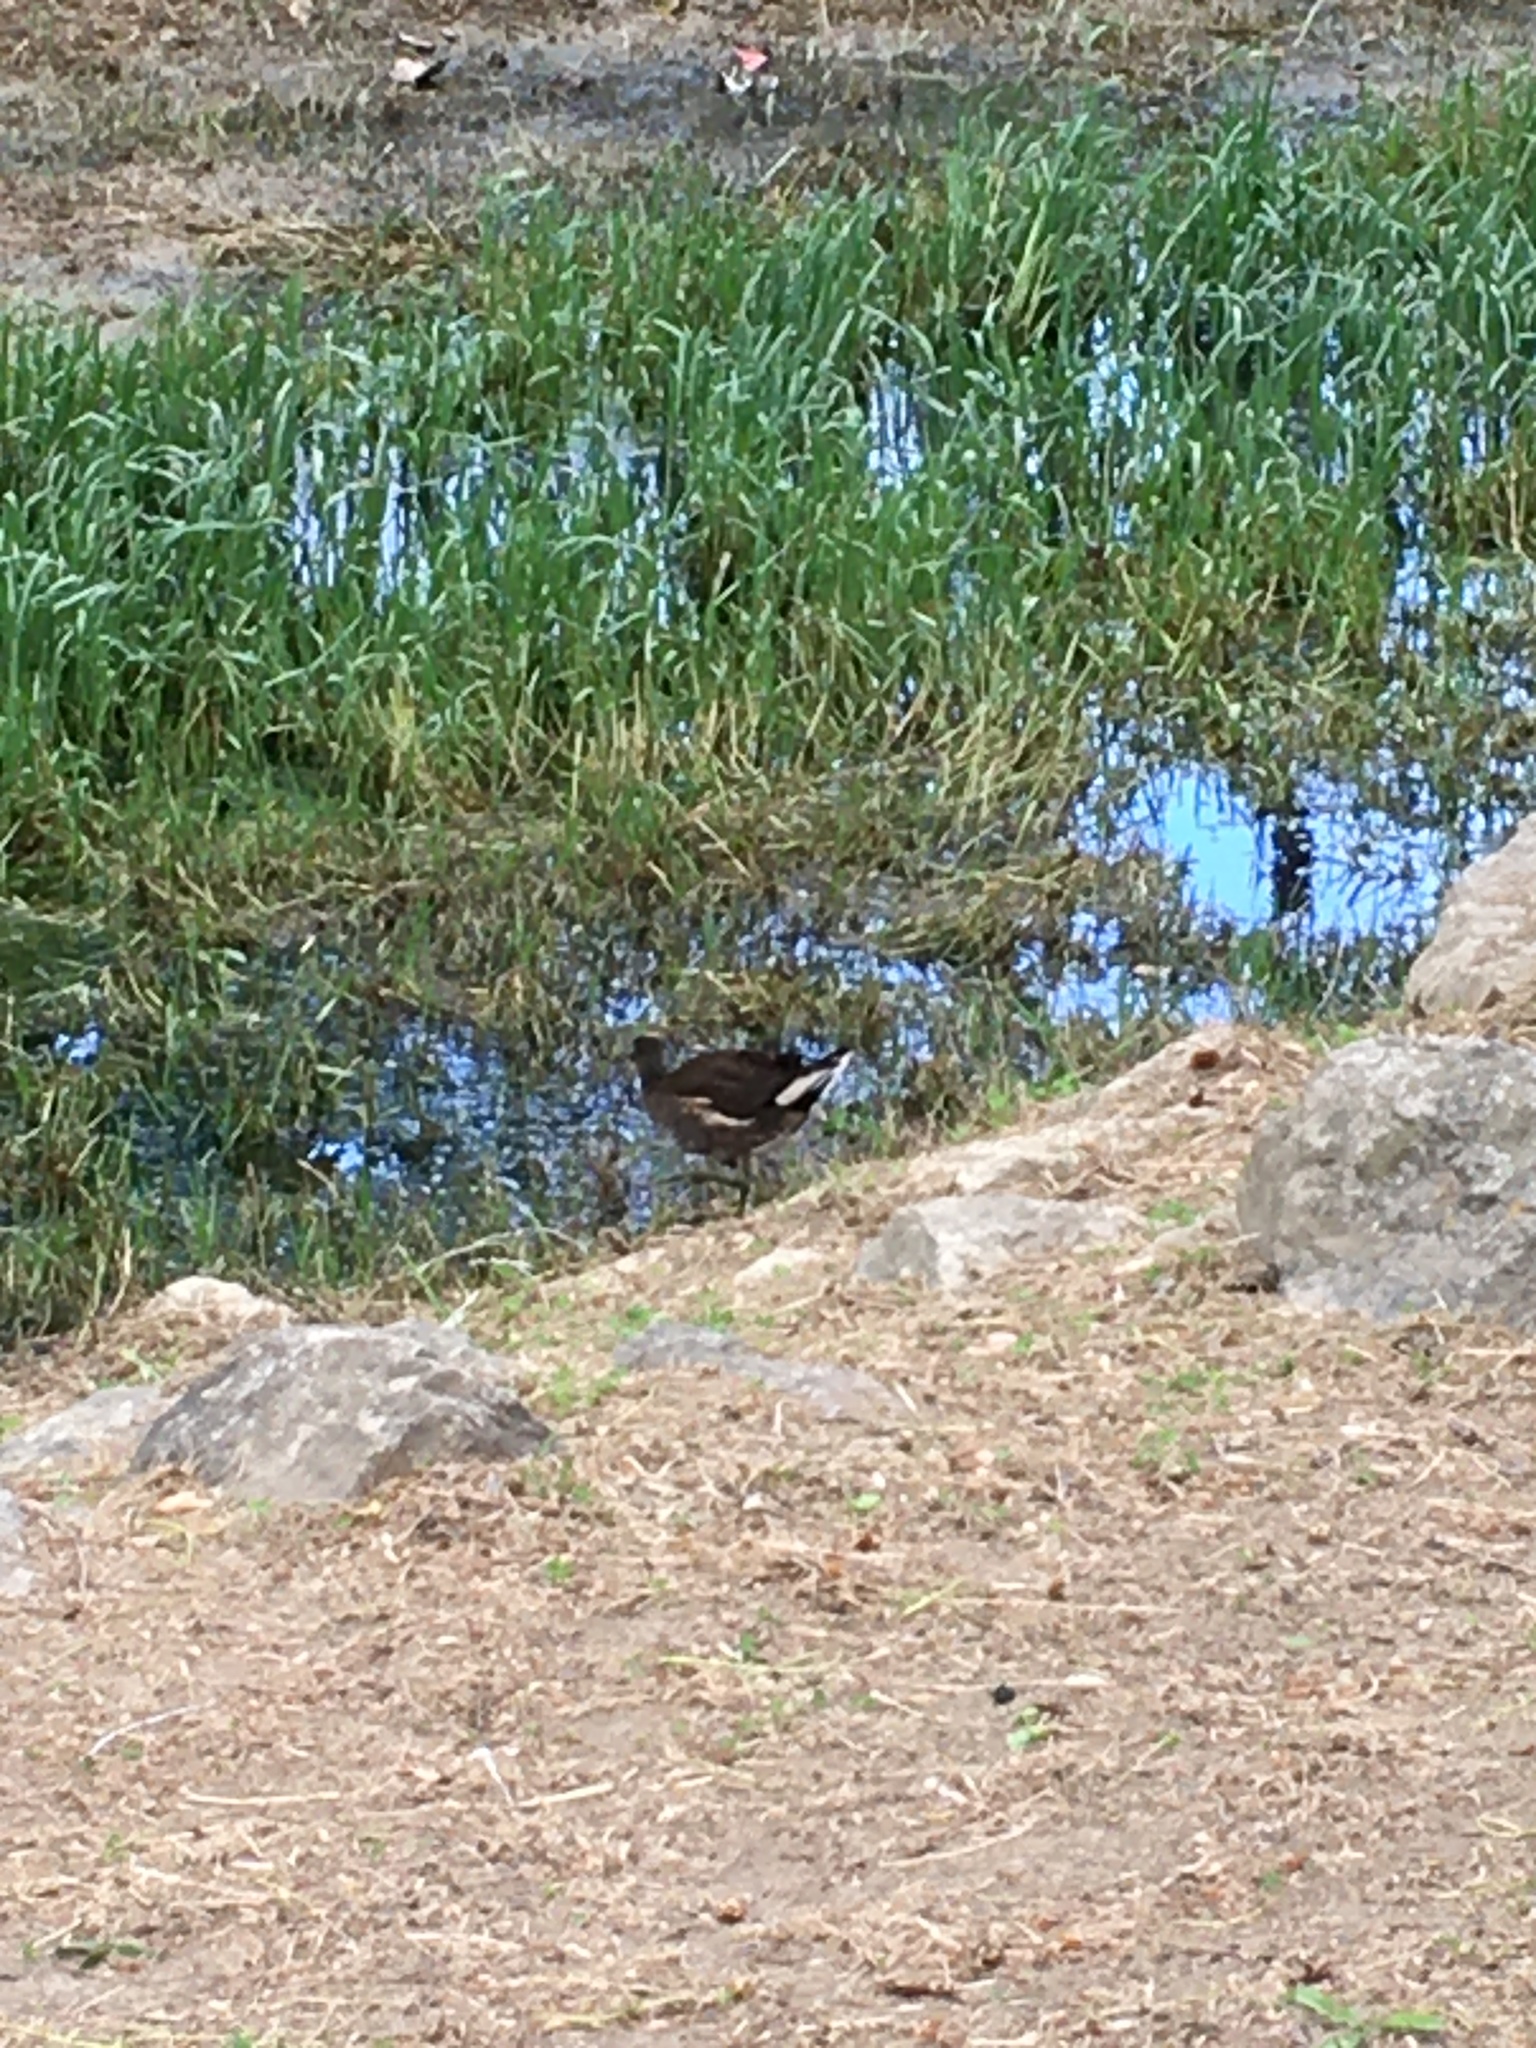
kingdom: Animalia
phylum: Chordata
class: Aves
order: Gruiformes
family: Rallidae
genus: Gallinula
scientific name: Gallinula chloropus
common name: Common moorhen
